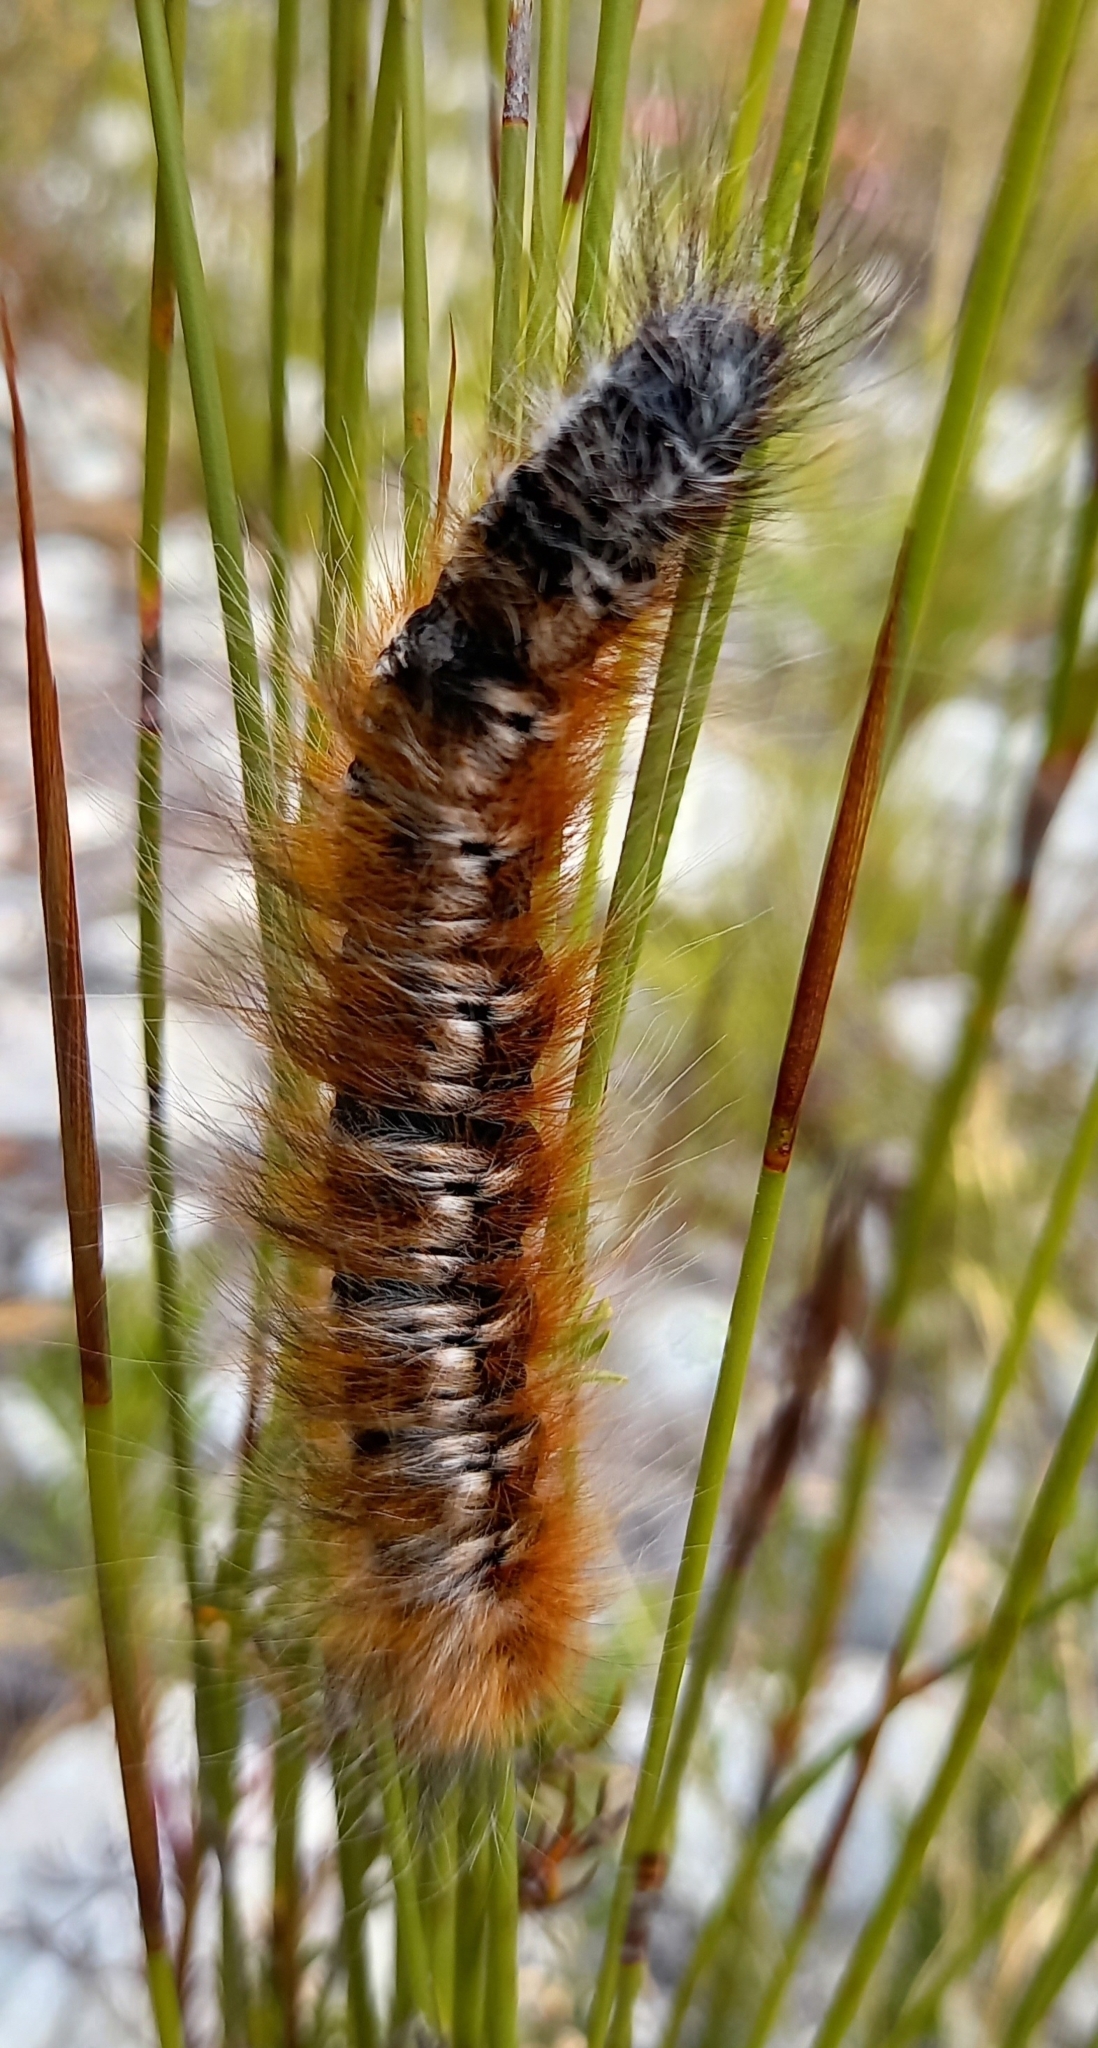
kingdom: Animalia
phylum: Arthropoda
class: Insecta
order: Lepidoptera
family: Lasiocampidae
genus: Mesocelis
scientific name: Mesocelis monticola
